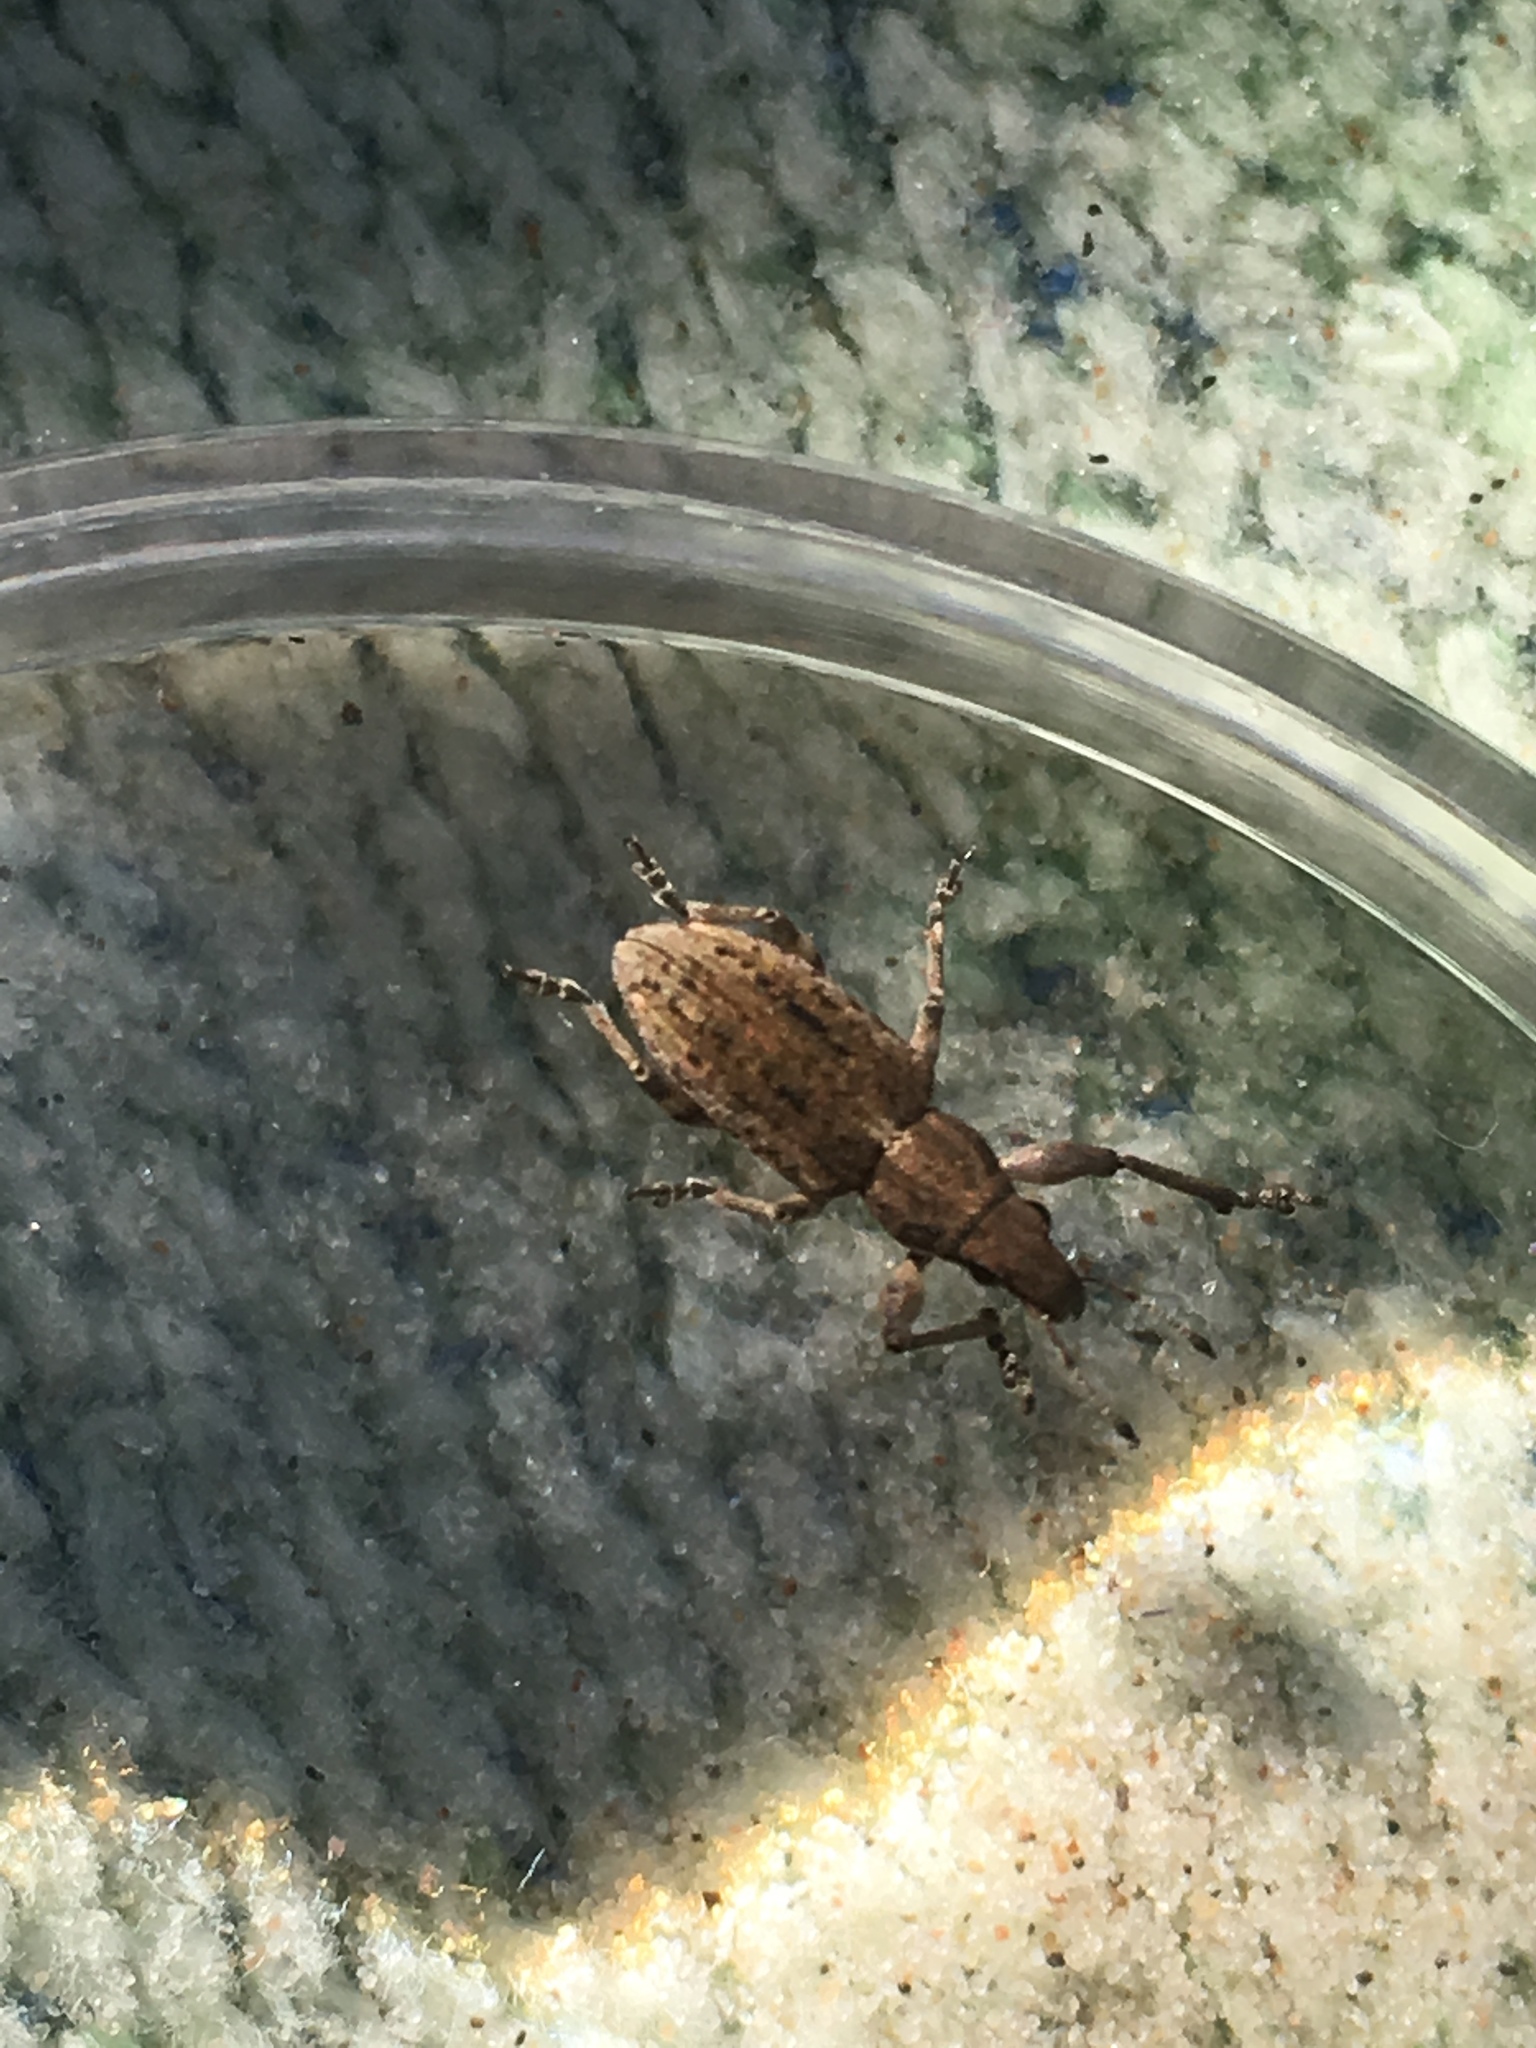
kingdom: Animalia
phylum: Arthropoda
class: Insecta
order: Coleoptera
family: Curculionidae
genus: Charagmus
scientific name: Charagmus griseus
